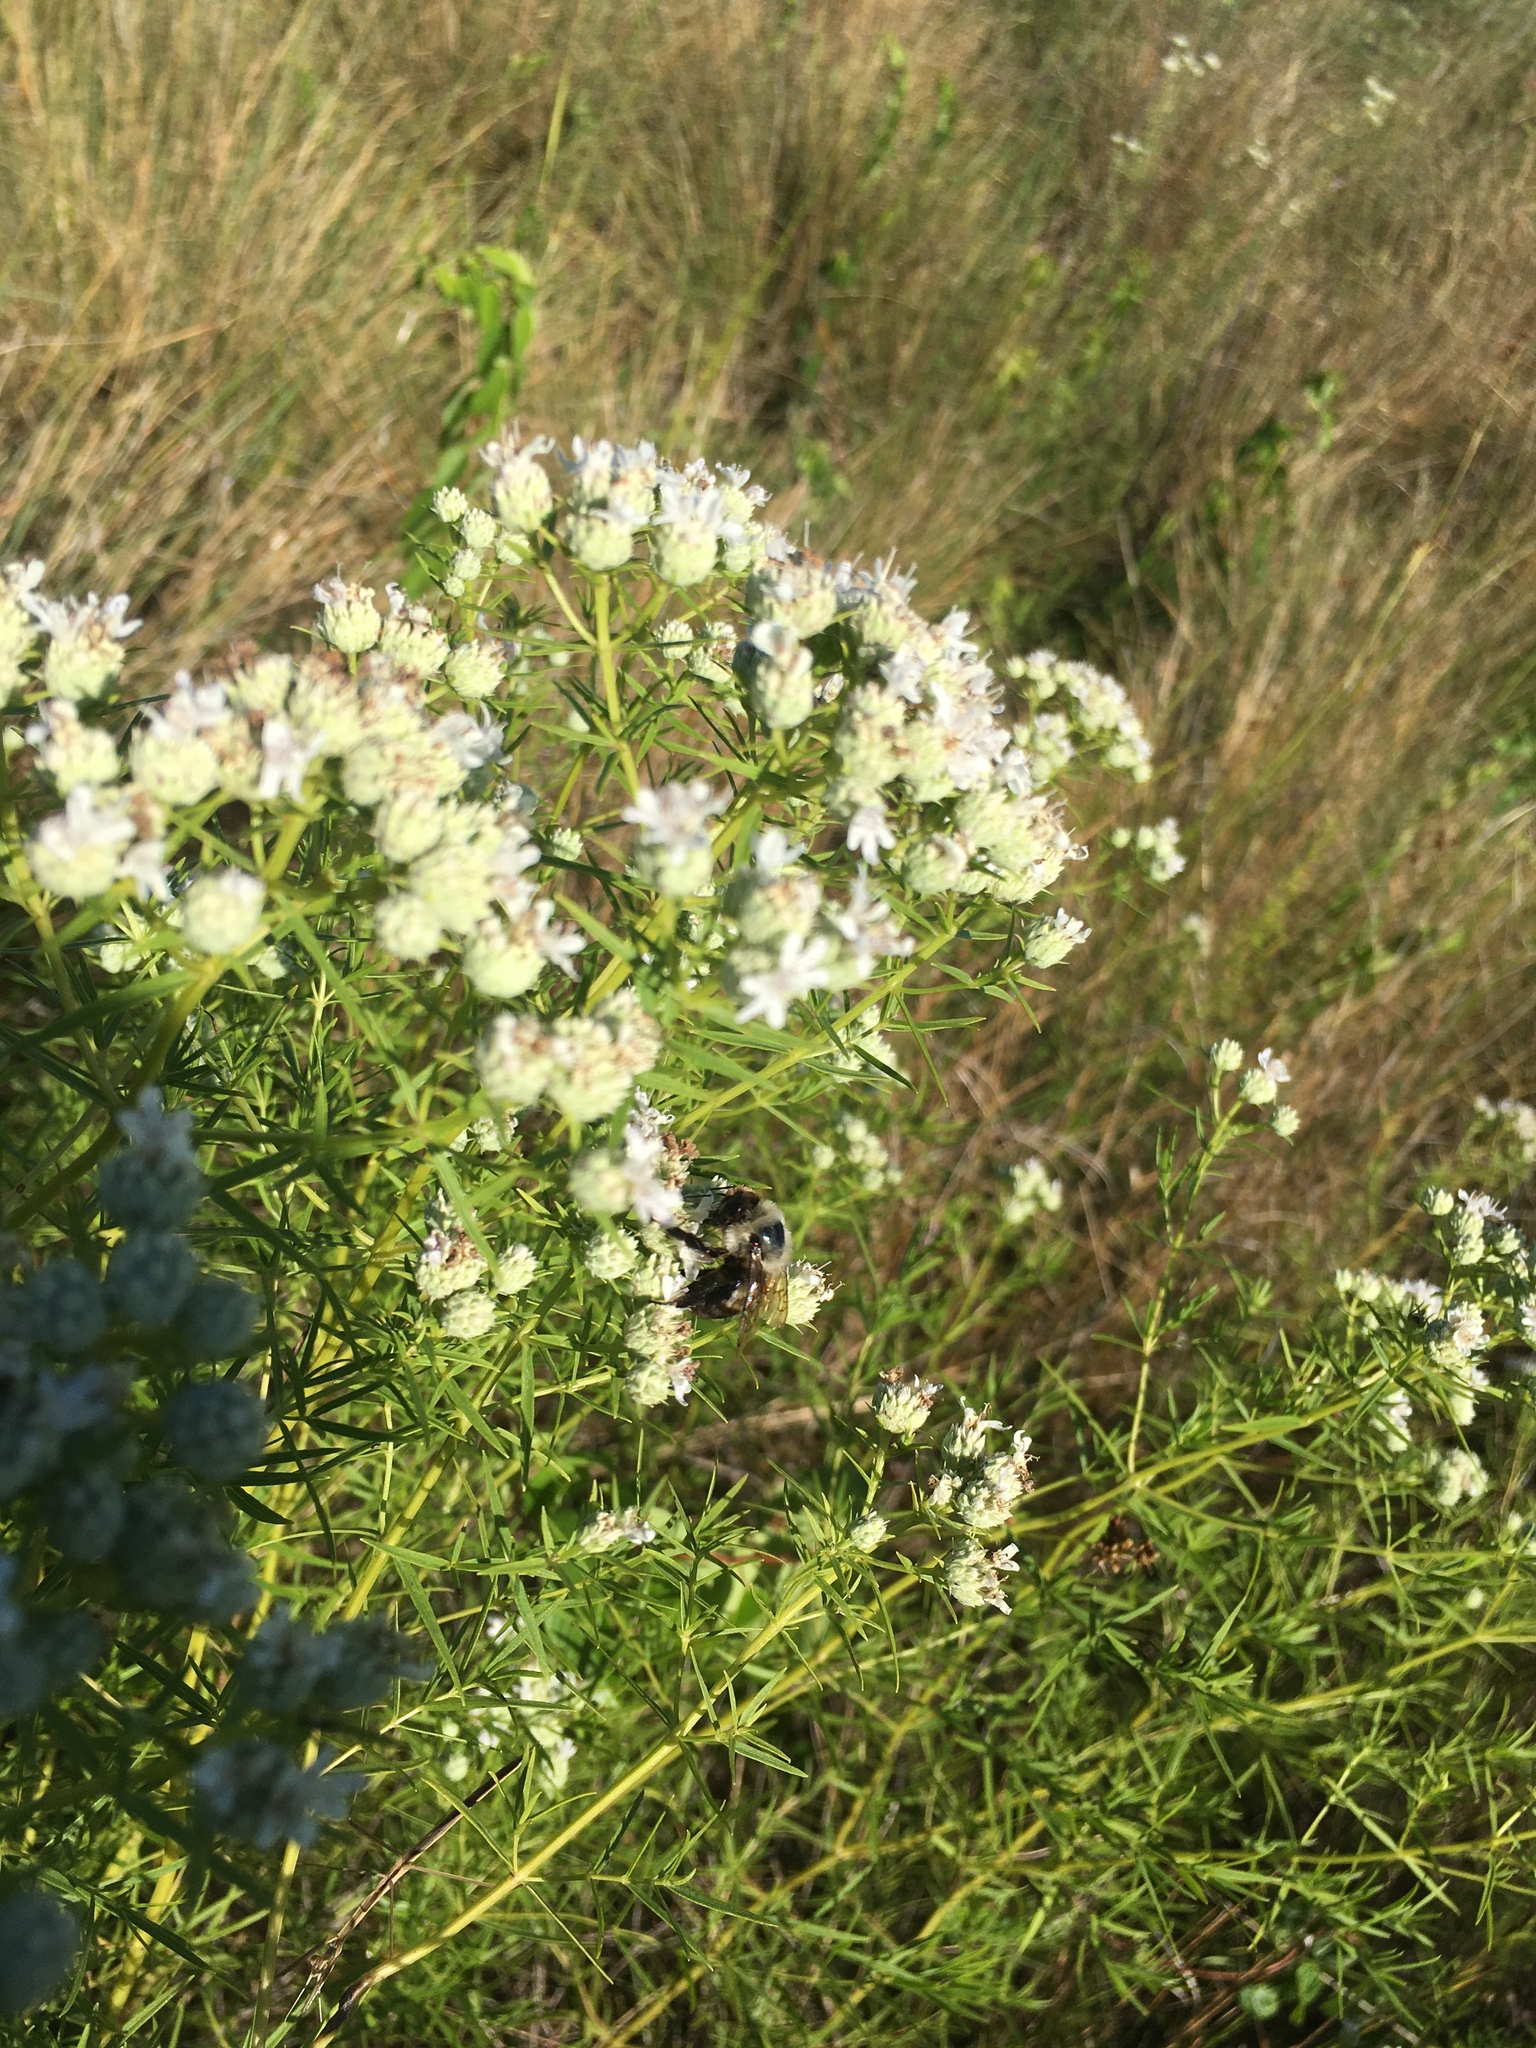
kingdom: Animalia
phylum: Arthropoda
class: Insecta
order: Hymenoptera
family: Apidae
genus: Bombus
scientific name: Bombus griseocollis
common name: Brown-belted bumble bee
